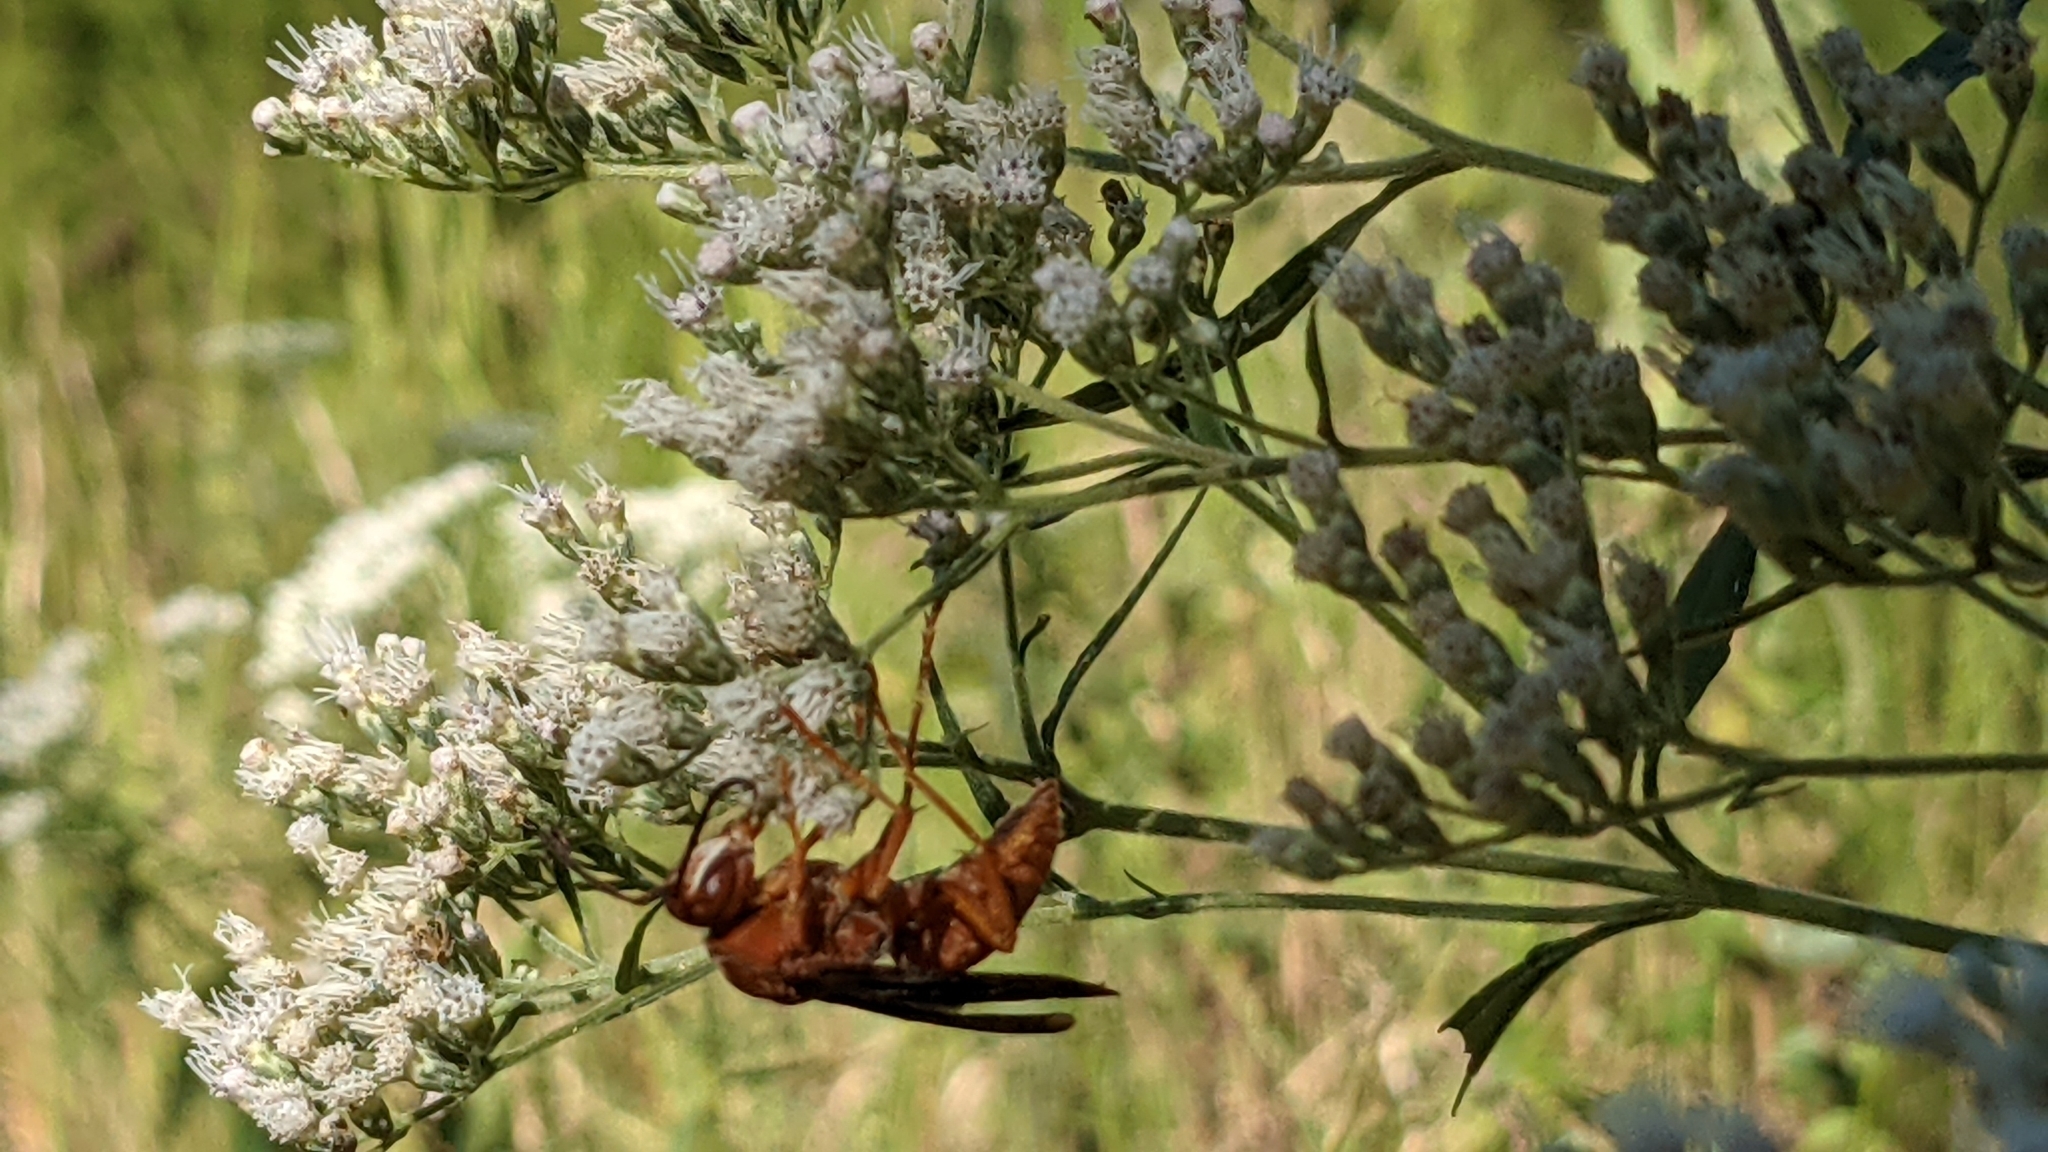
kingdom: Animalia
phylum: Arthropoda
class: Insecta
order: Hymenoptera
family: Vespidae
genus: Fuscopolistes
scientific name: Fuscopolistes
